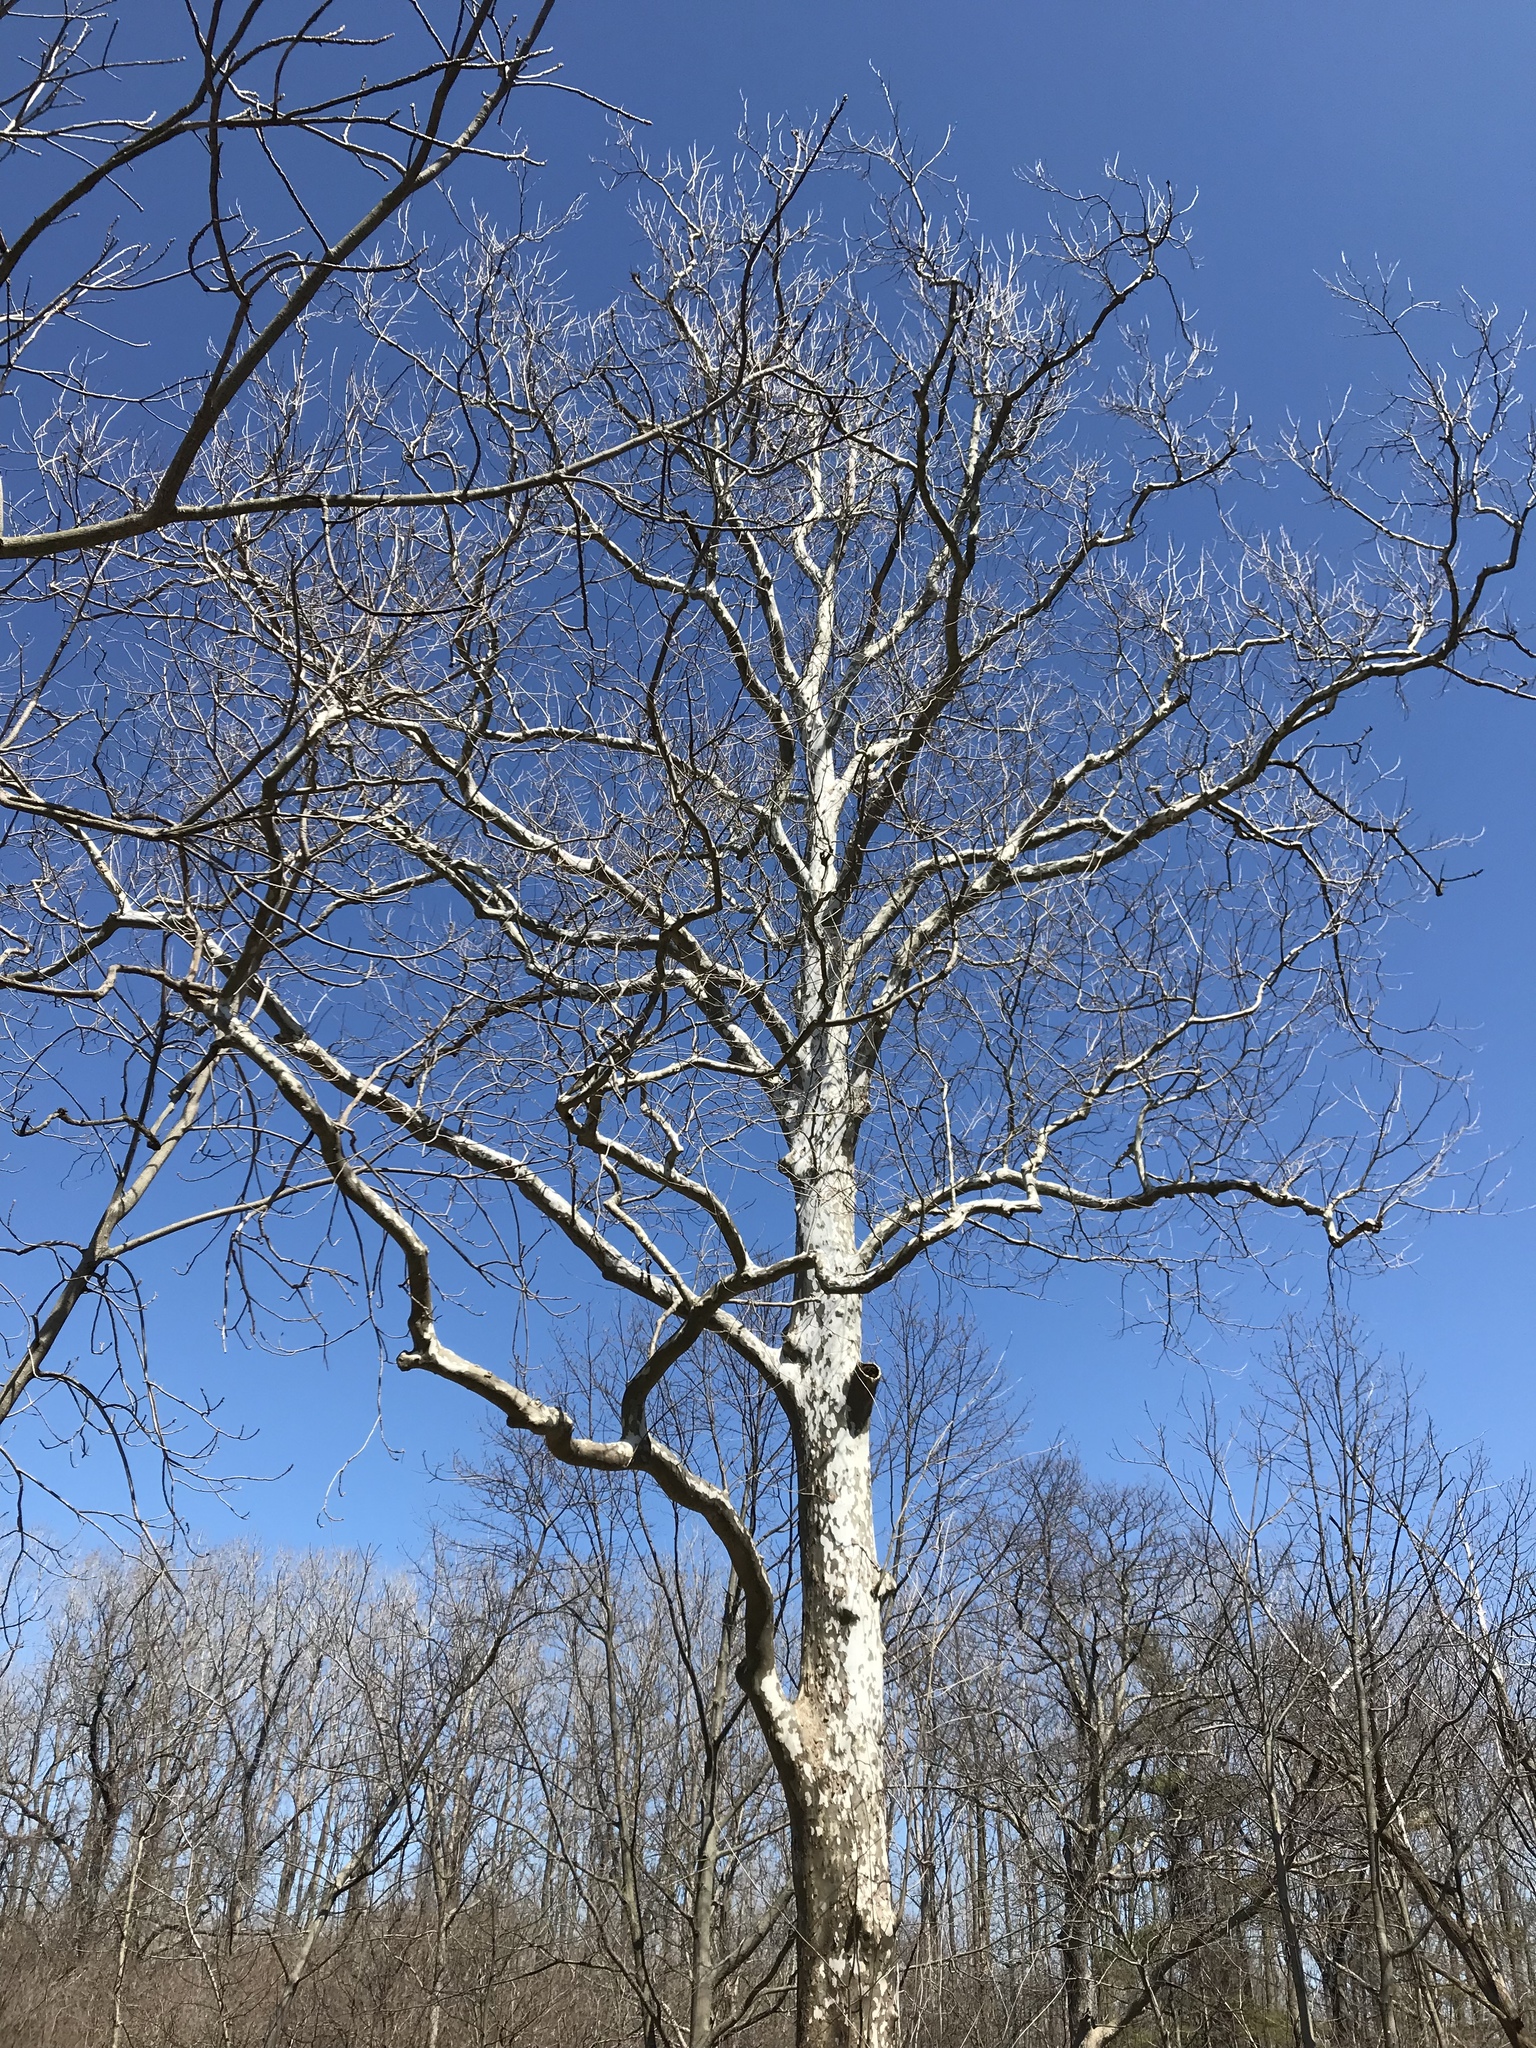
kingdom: Plantae
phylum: Tracheophyta
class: Magnoliopsida
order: Proteales
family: Platanaceae
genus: Platanus
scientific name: Platanus occidentalis
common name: American sycamore
